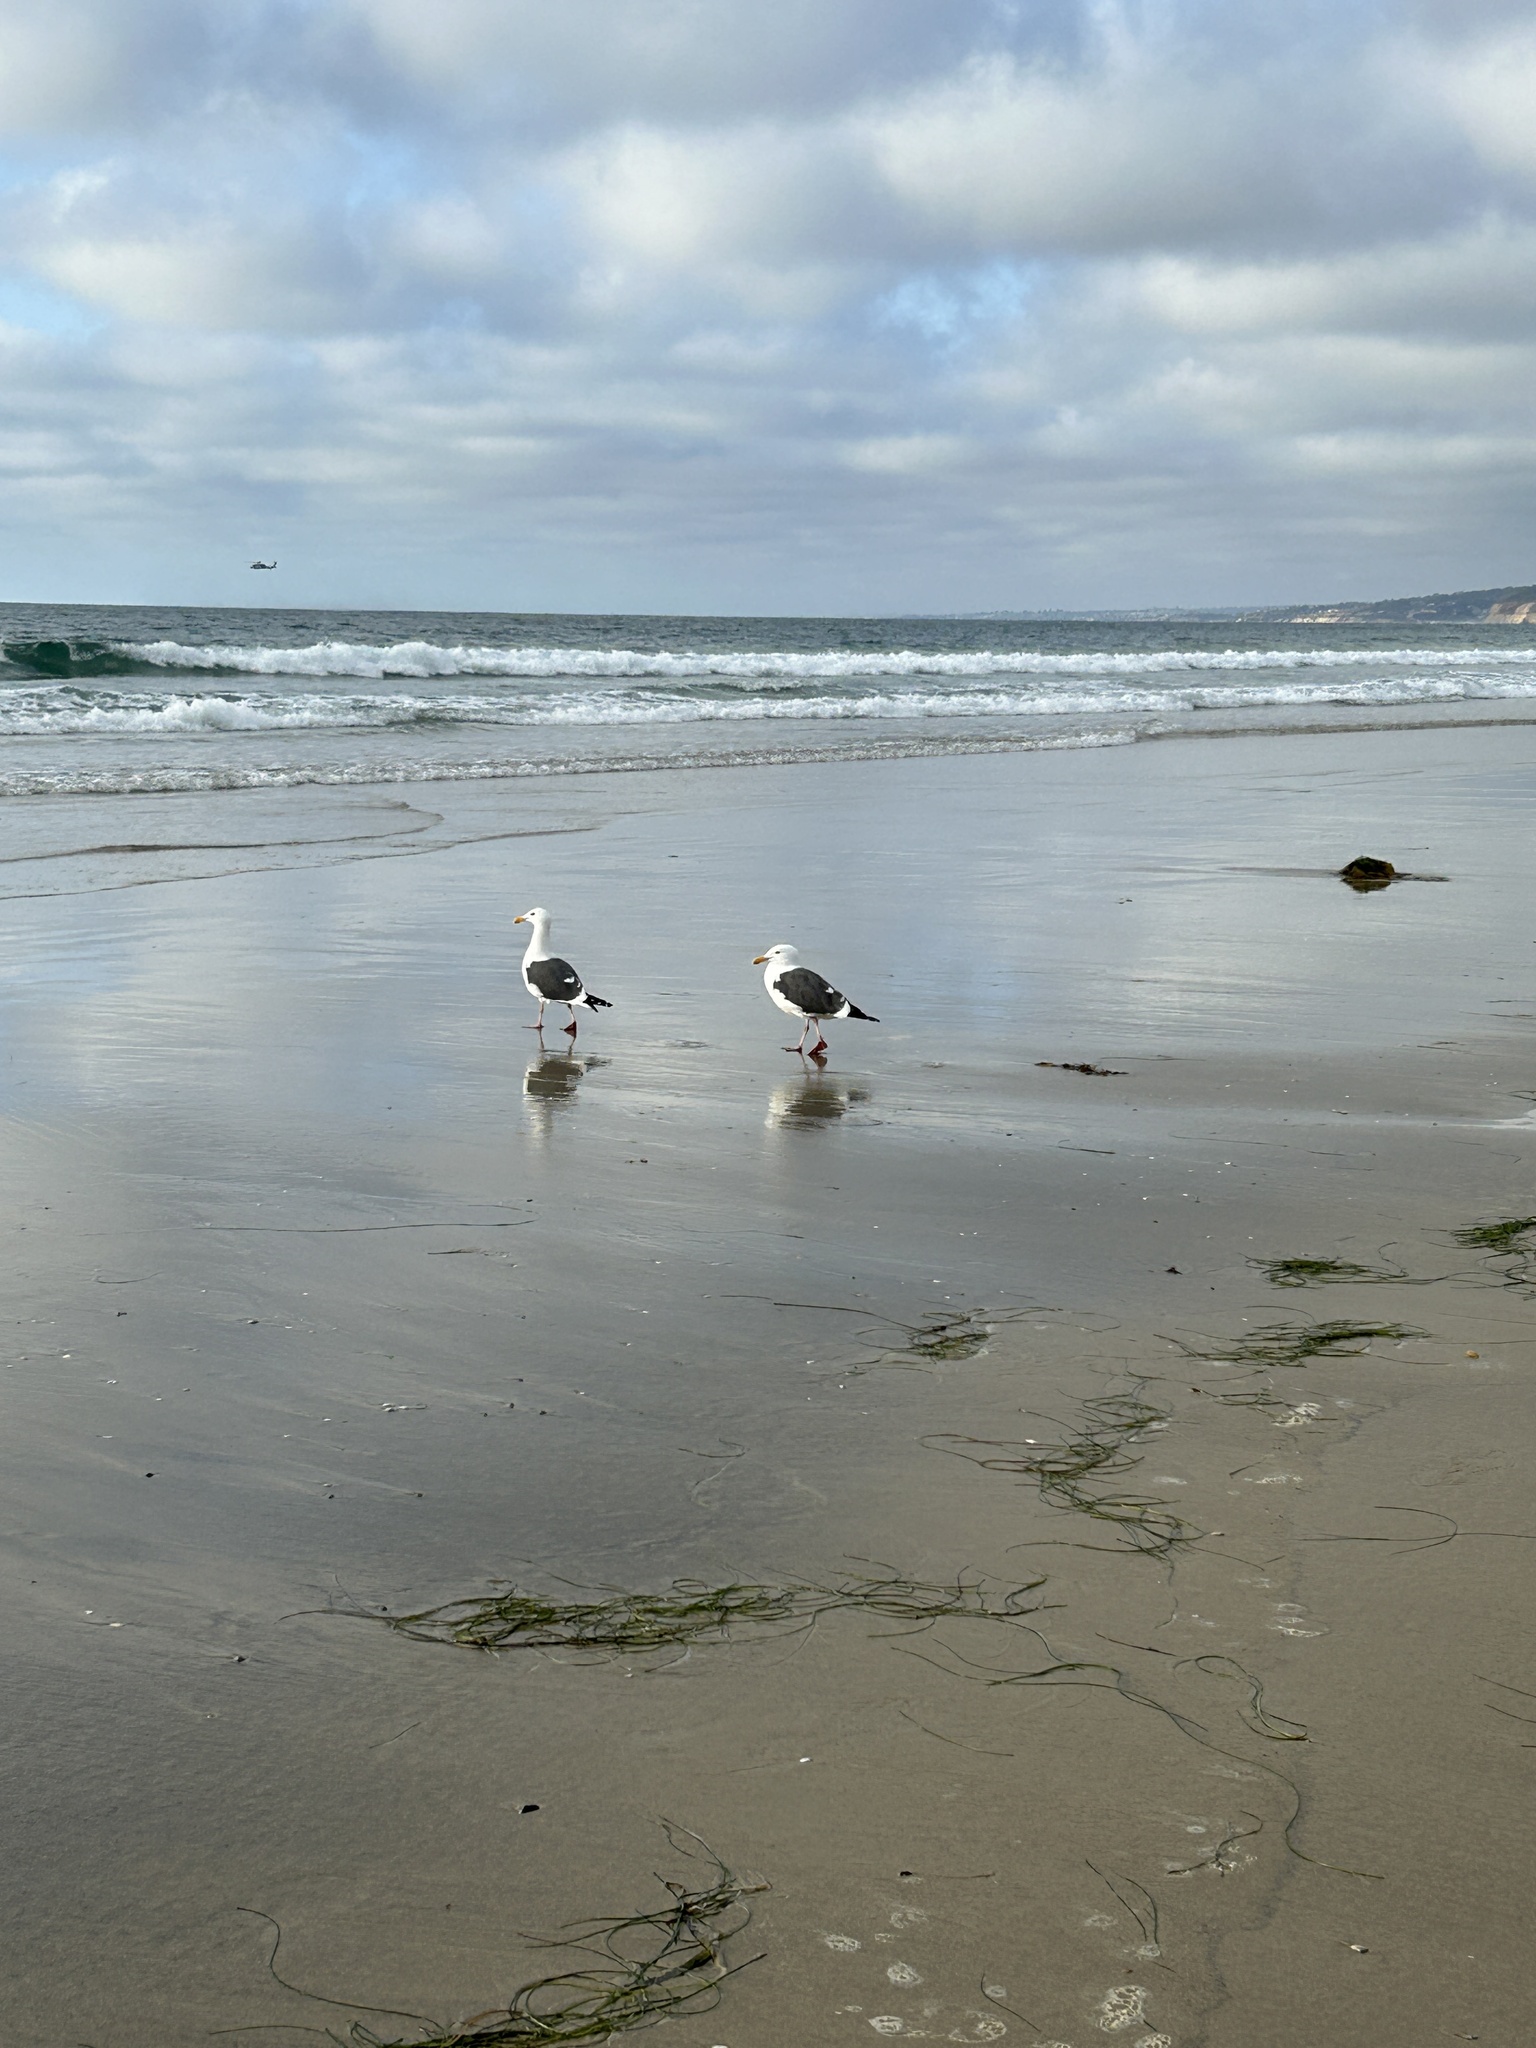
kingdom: Animalia
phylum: Chordata
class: Aves
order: Charadriiformes
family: Laridae
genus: Larus
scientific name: Larus occidentalis
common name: Western gull
